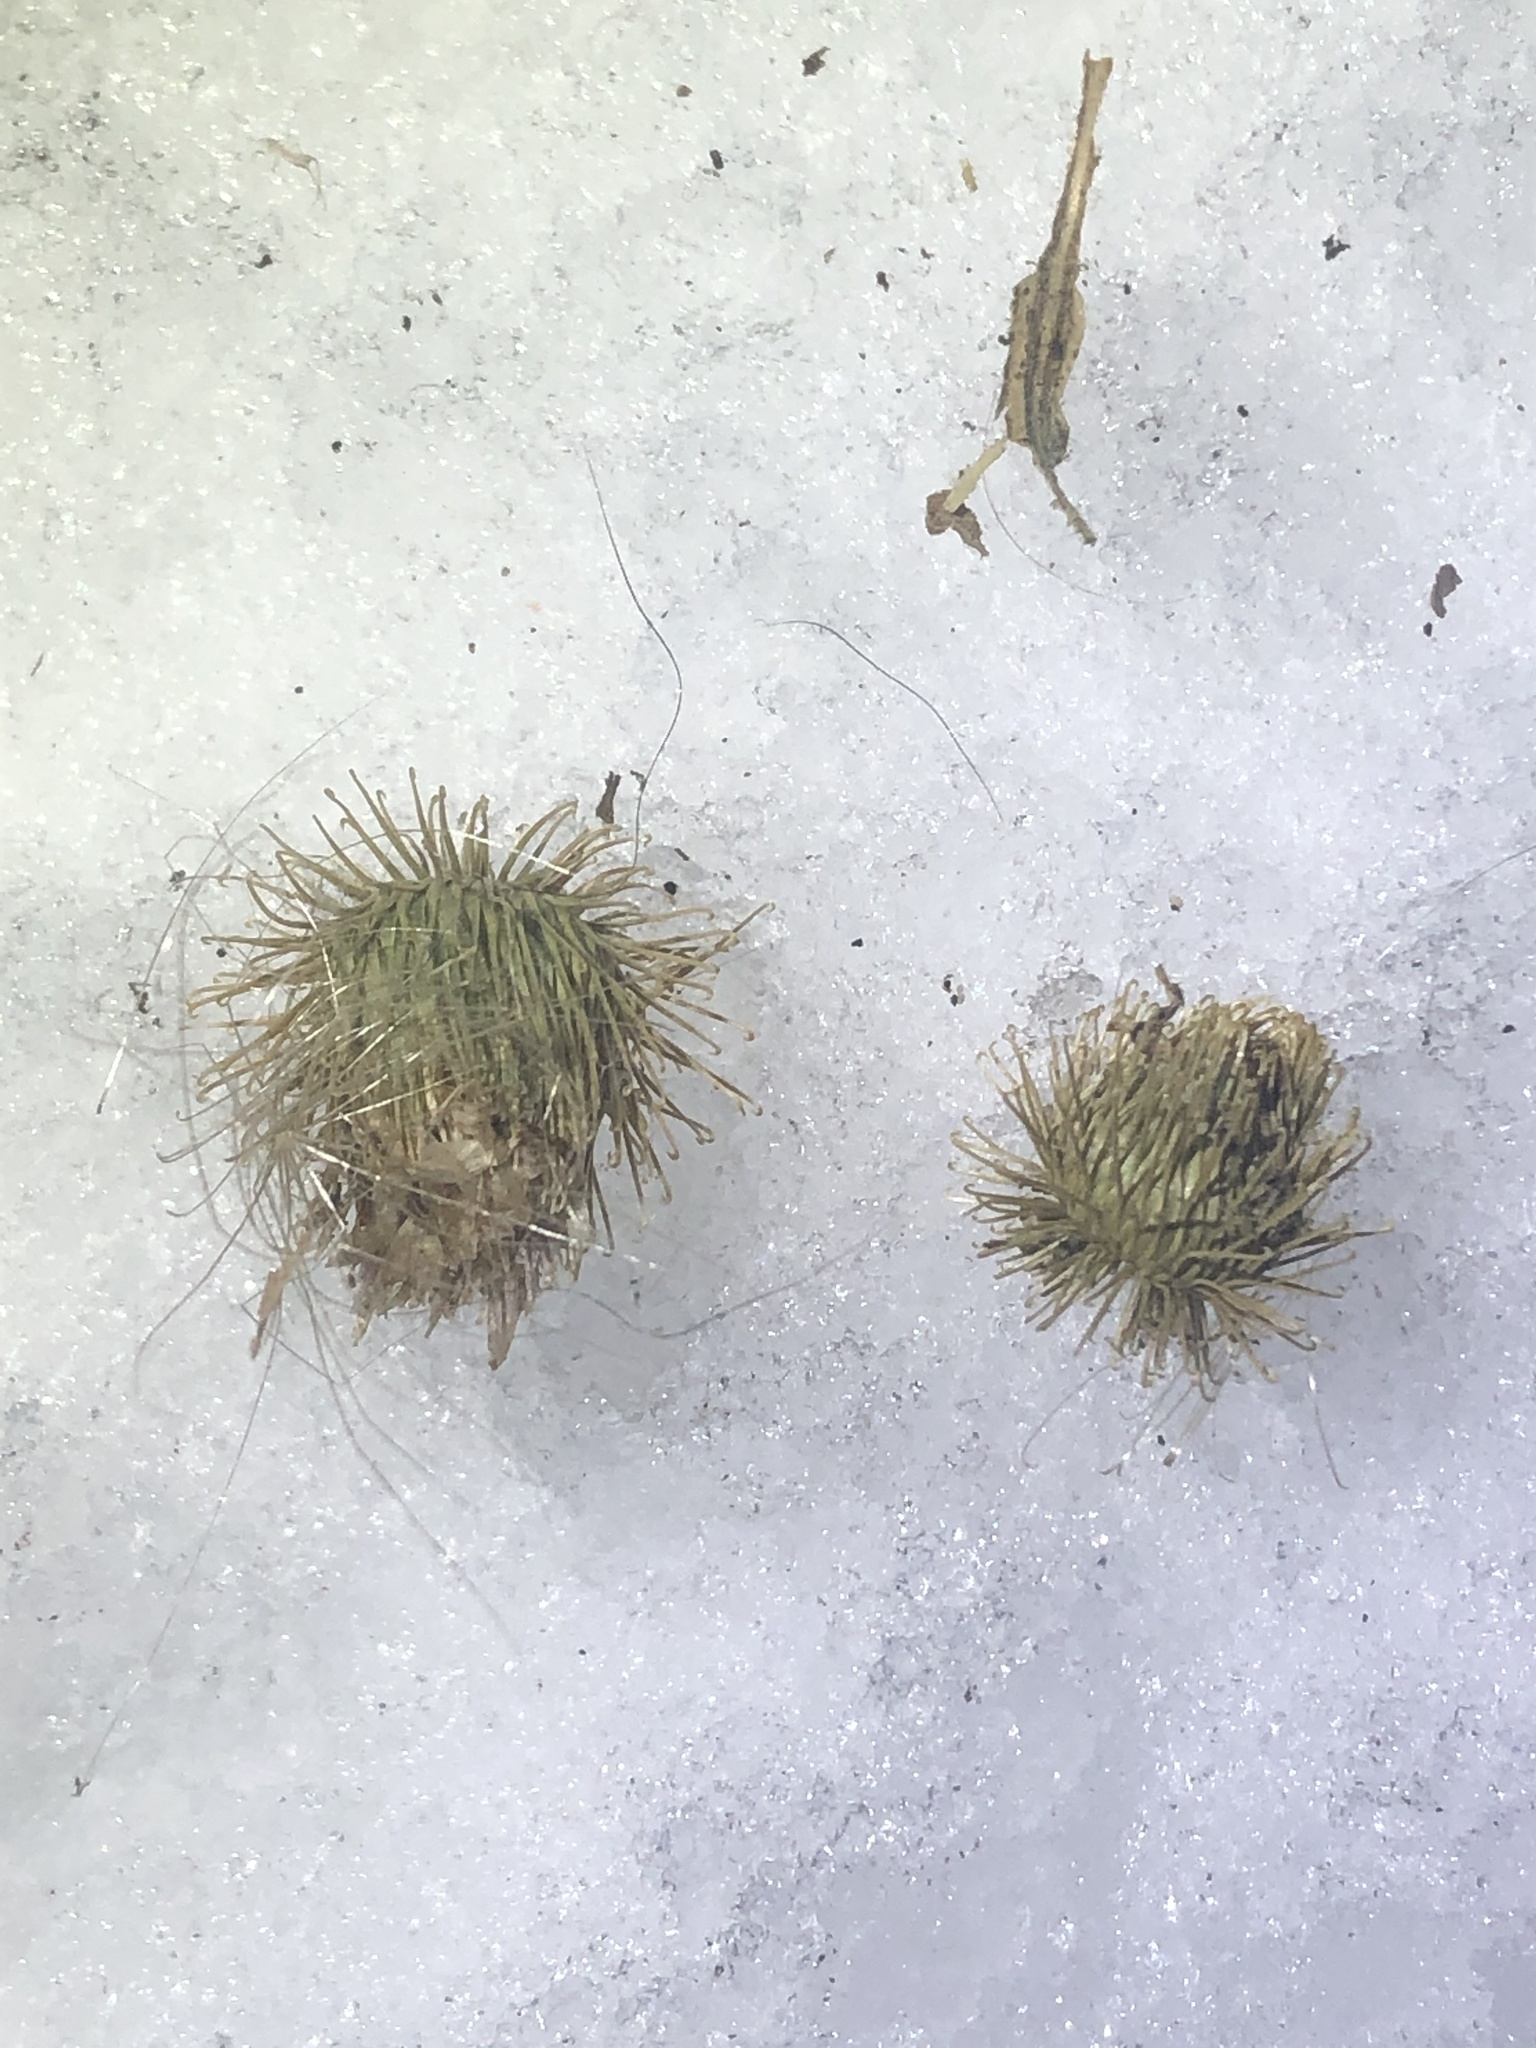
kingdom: Plantae
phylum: Tracheophyta
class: Magnoliopsida
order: Asterales
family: Asteraceae
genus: Arctium
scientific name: Arctium minus
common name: Lesser burdock
